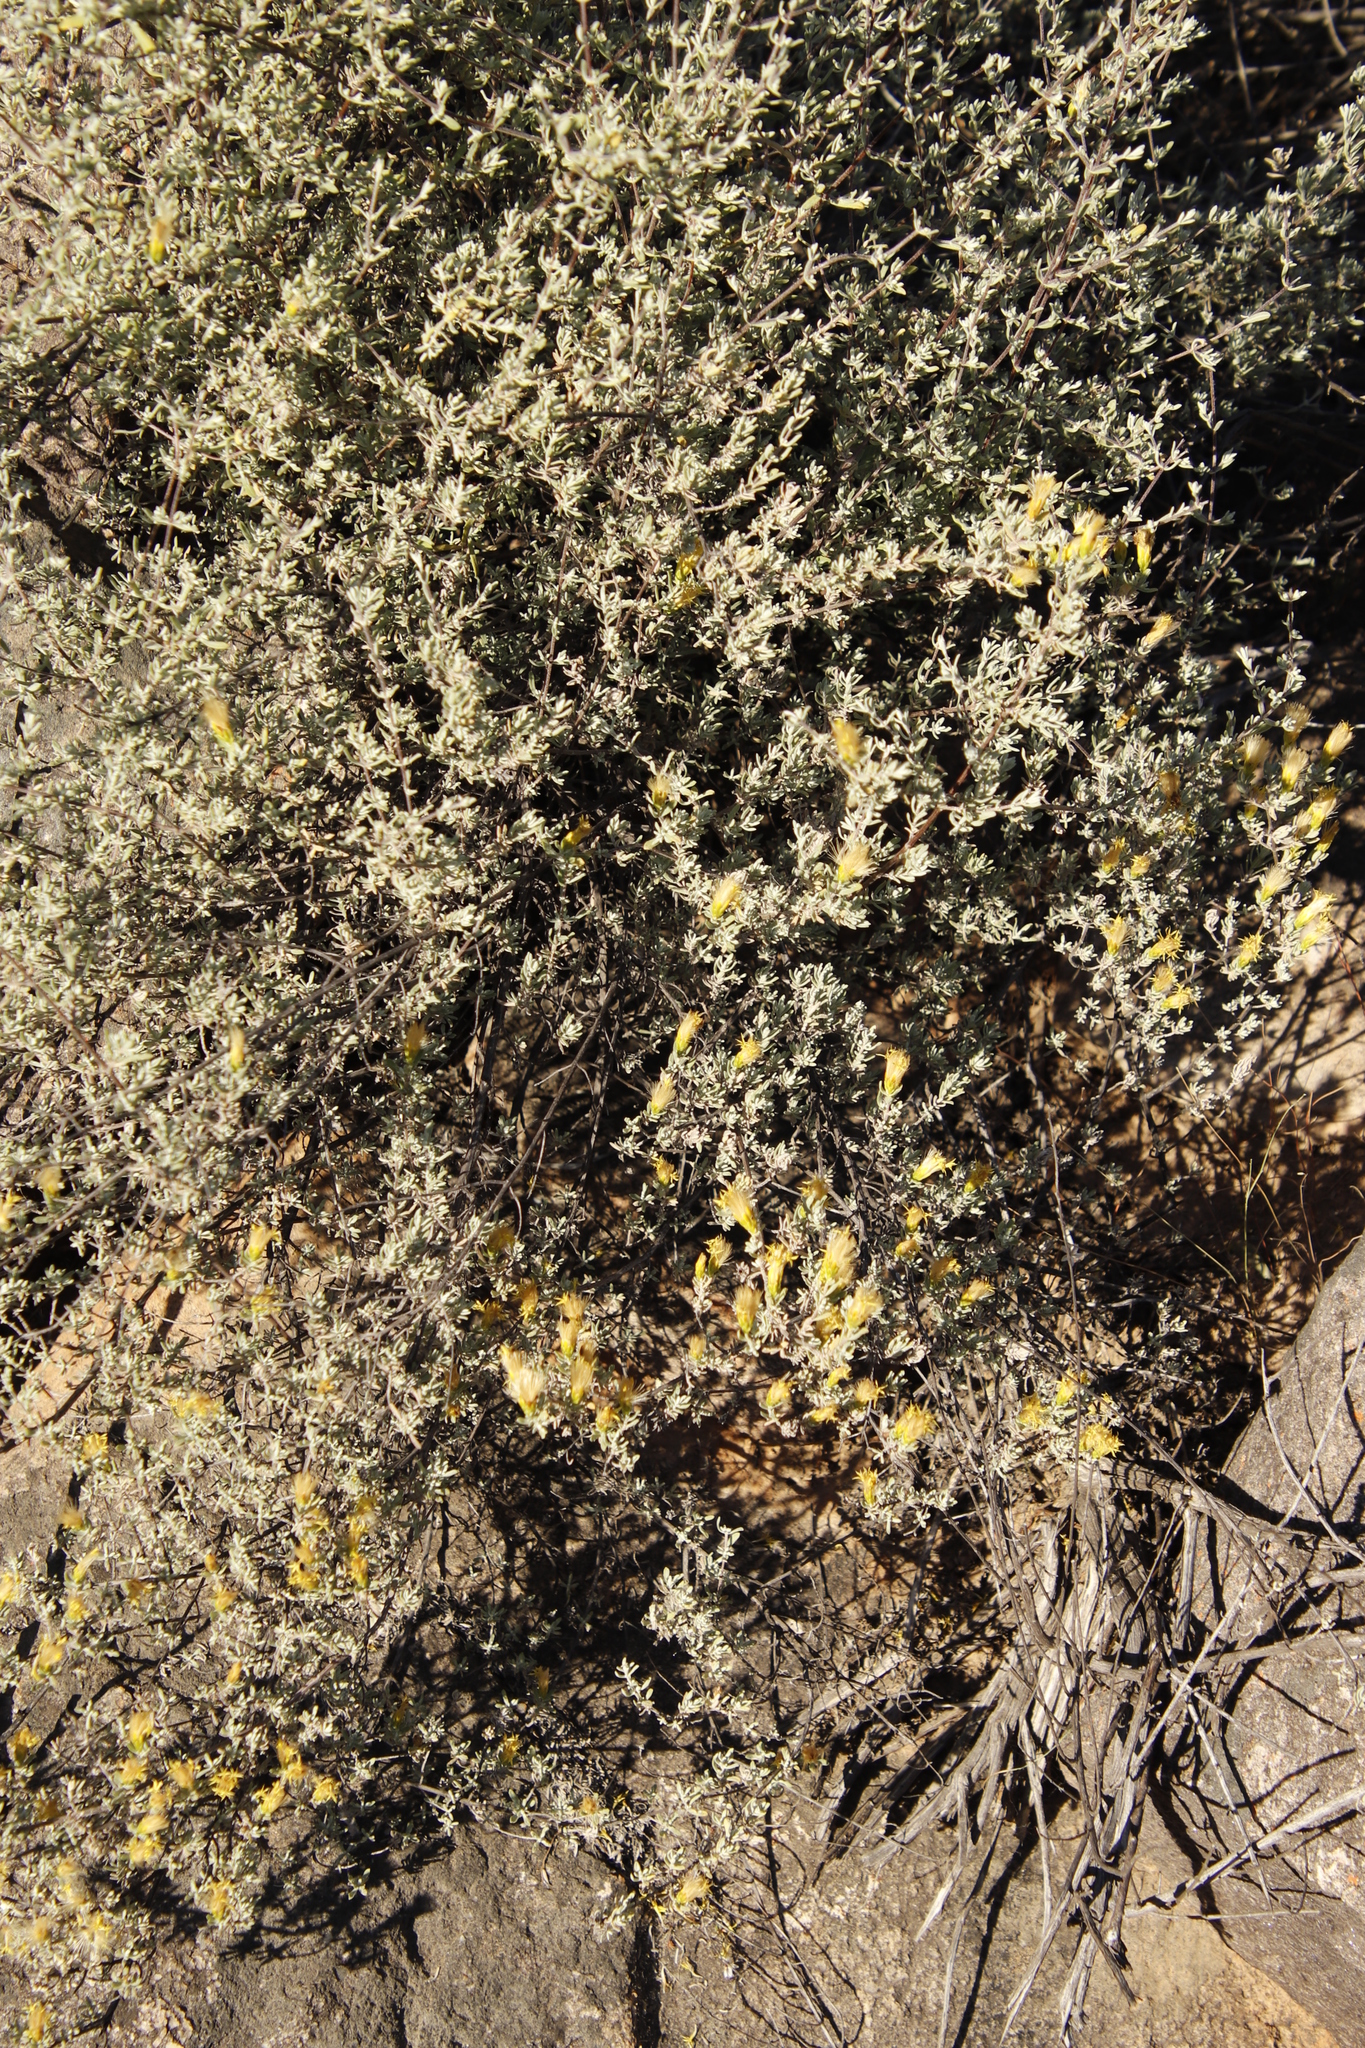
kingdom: Plantae
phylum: Tracheophyta
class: Magnoliopsida
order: Asterales
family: Asteraceae
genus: Pteronia
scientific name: Pteronia incana
